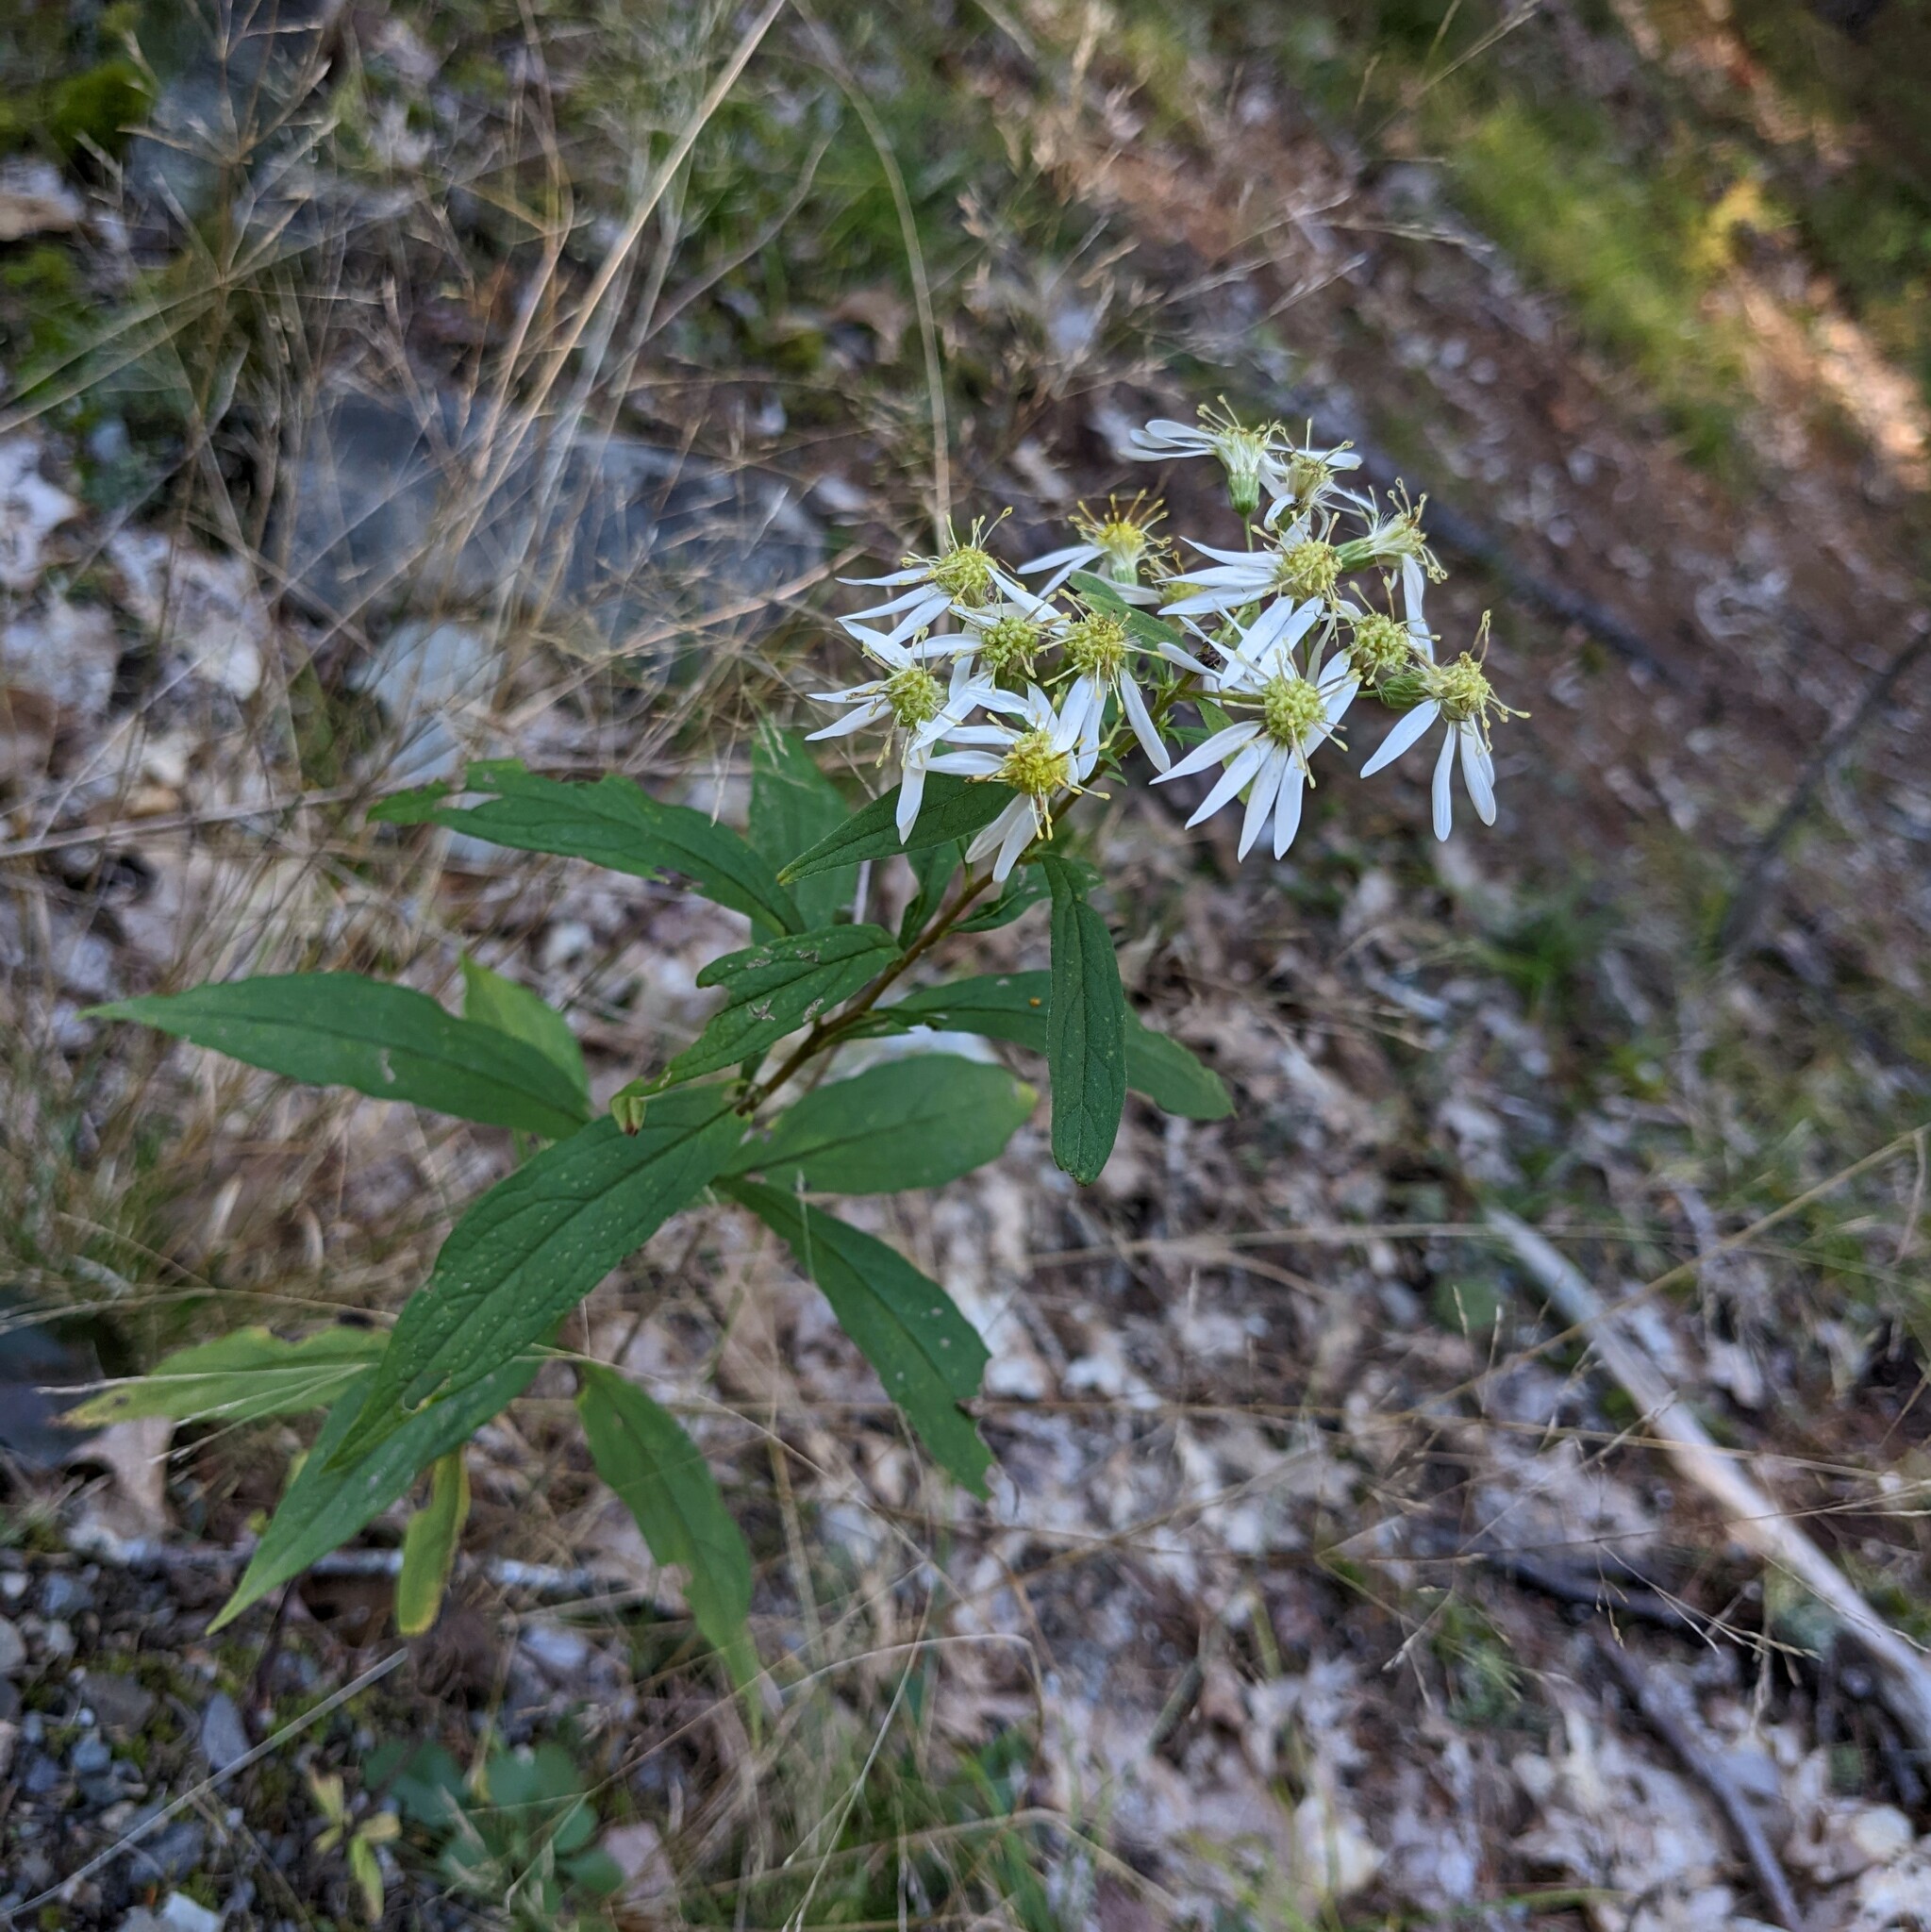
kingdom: Plantae
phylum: Tracheophyta
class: Magnoliopsida
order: Asterales
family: Asteraceae
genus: Doellingeria
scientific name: Doellingeria umbellata
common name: Flat-top white aster
